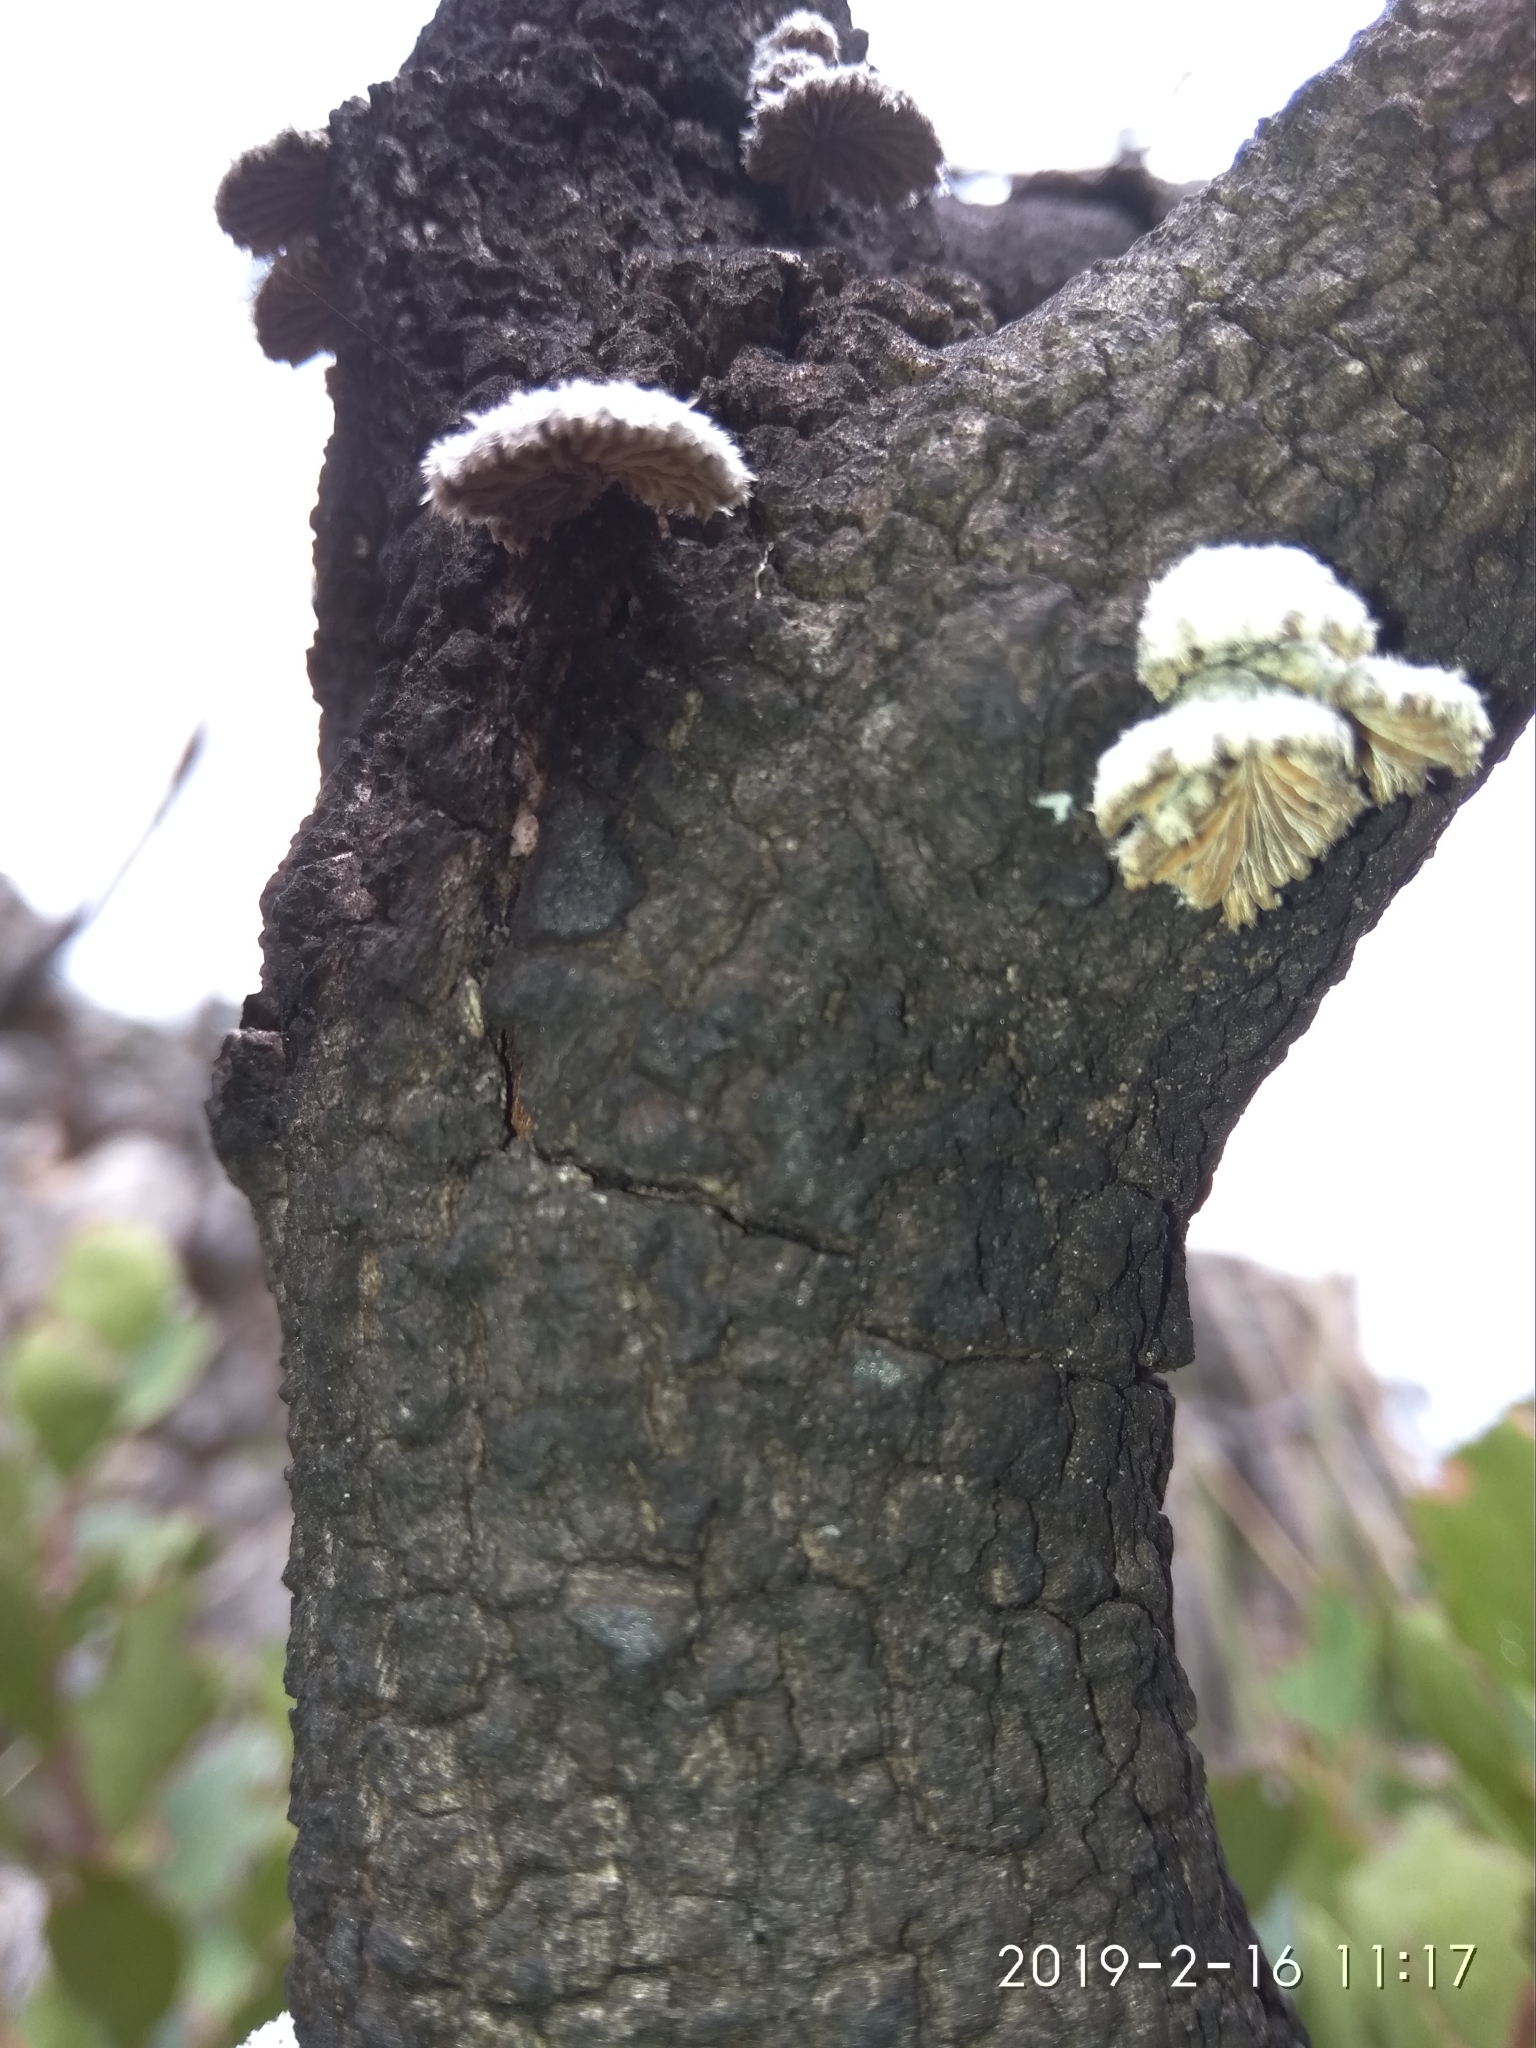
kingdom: Fungi
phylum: Basidiomycota
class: Agaricomycetes
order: Agaricales
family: Schizophyllaceae
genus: Schizophyllum
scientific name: Schizophyllum commune
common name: Common porecrust
